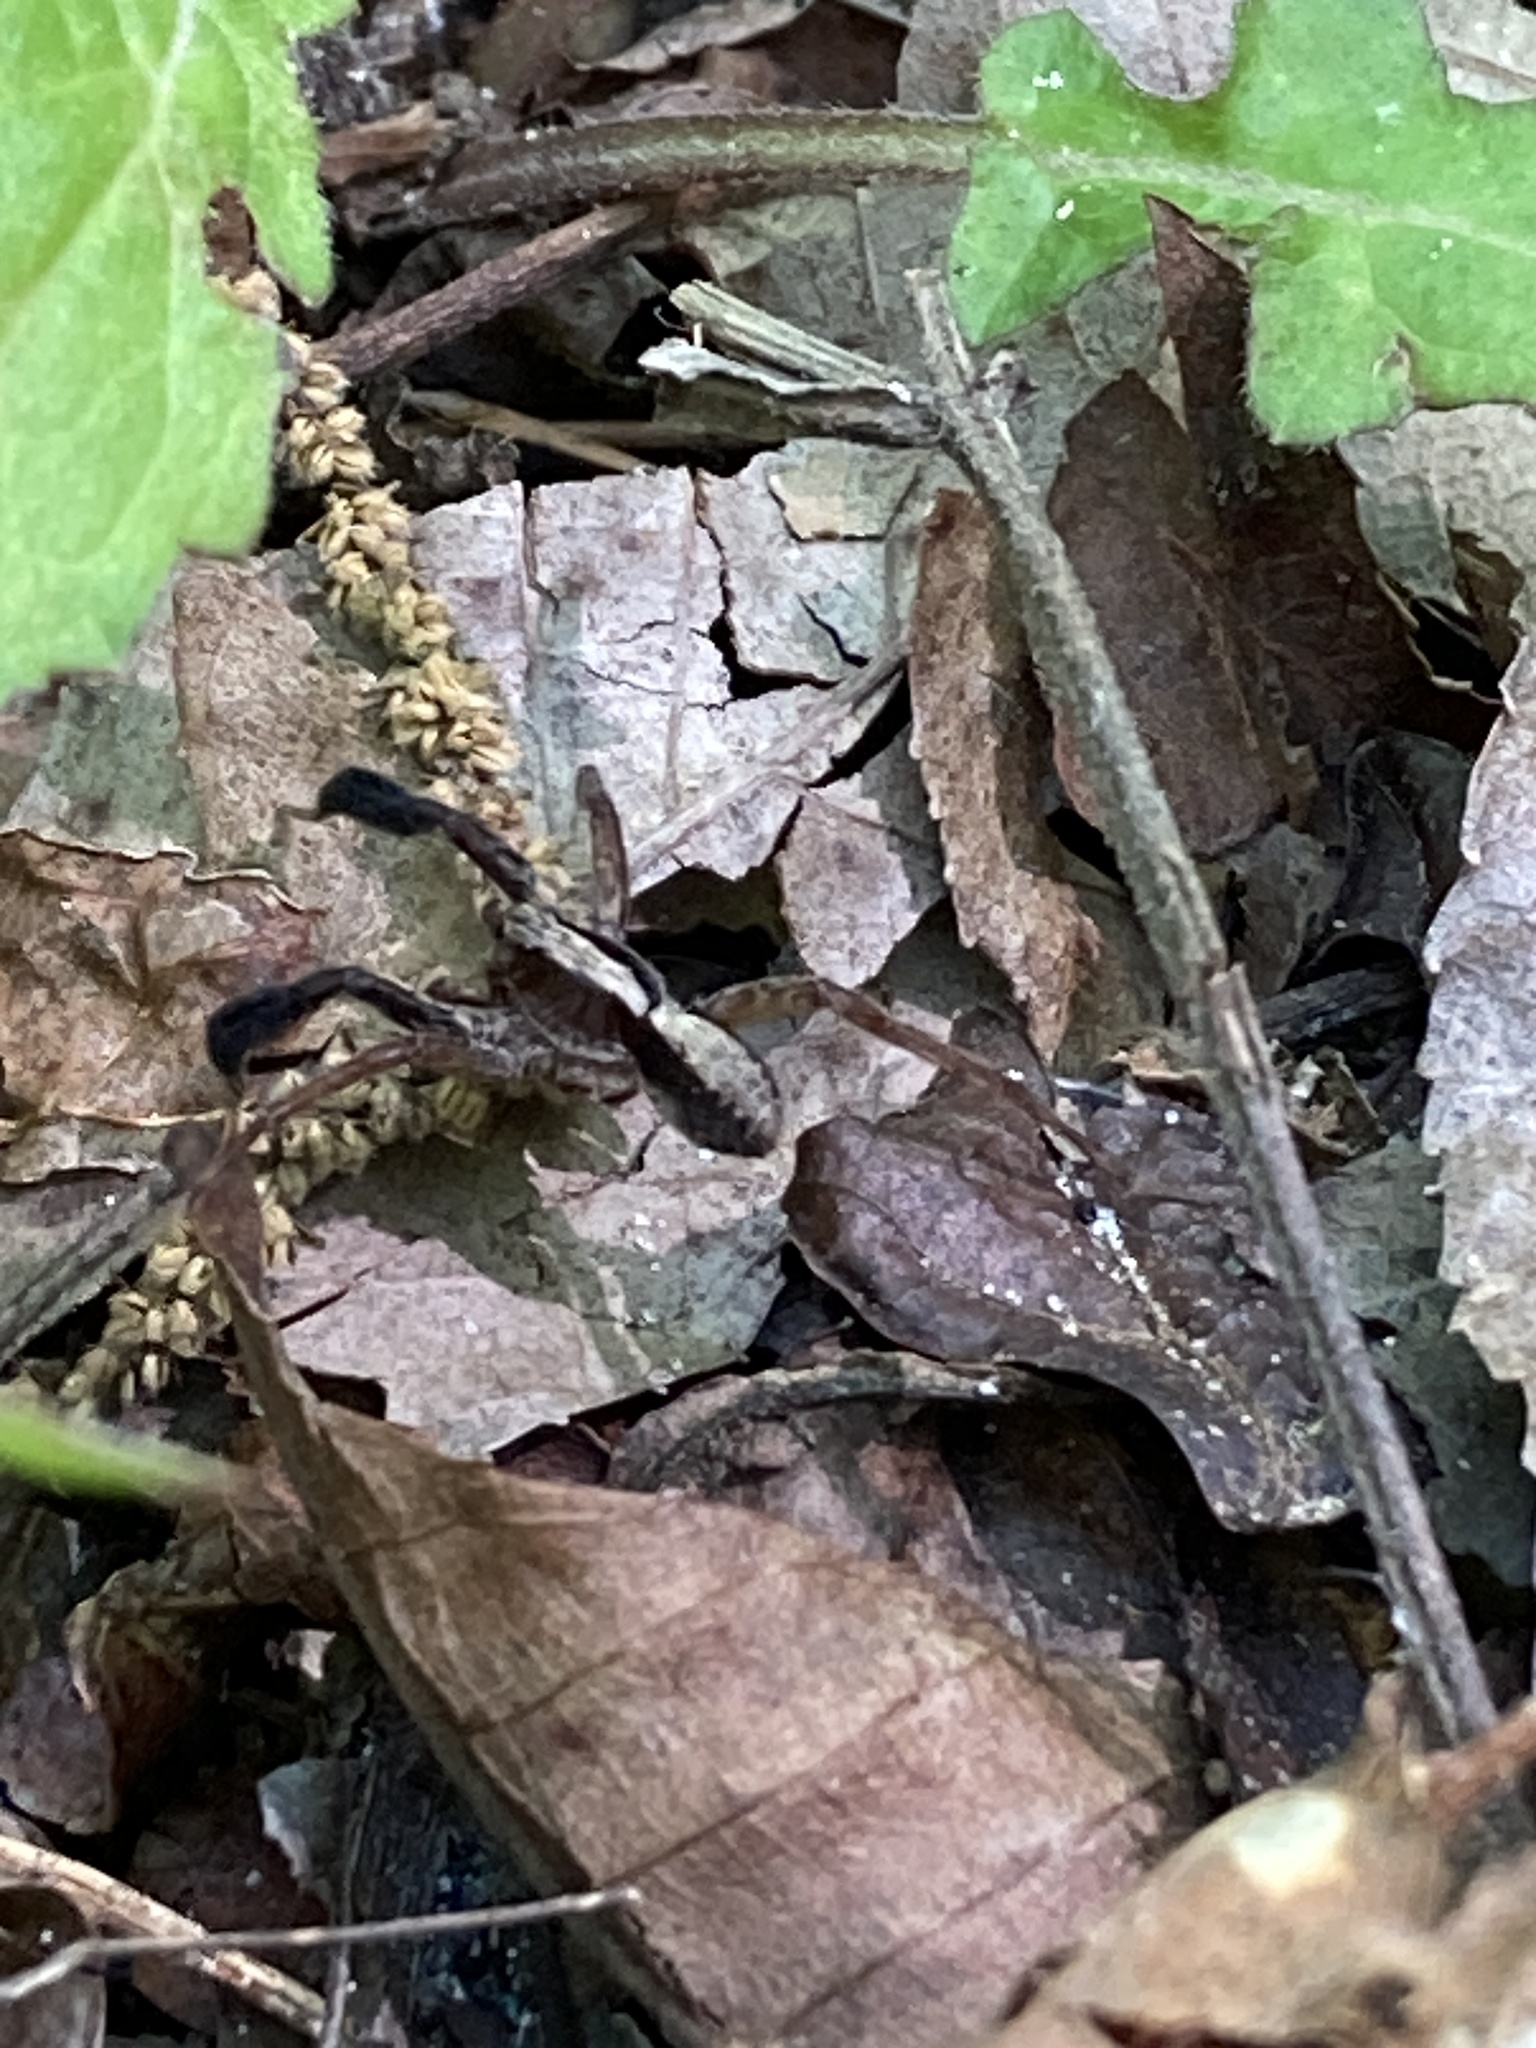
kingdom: Animalia
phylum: Arthropoda
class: Arachnida
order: Araneae
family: Lycosidae
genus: Schizocosa
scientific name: Schizocosa ocreata
